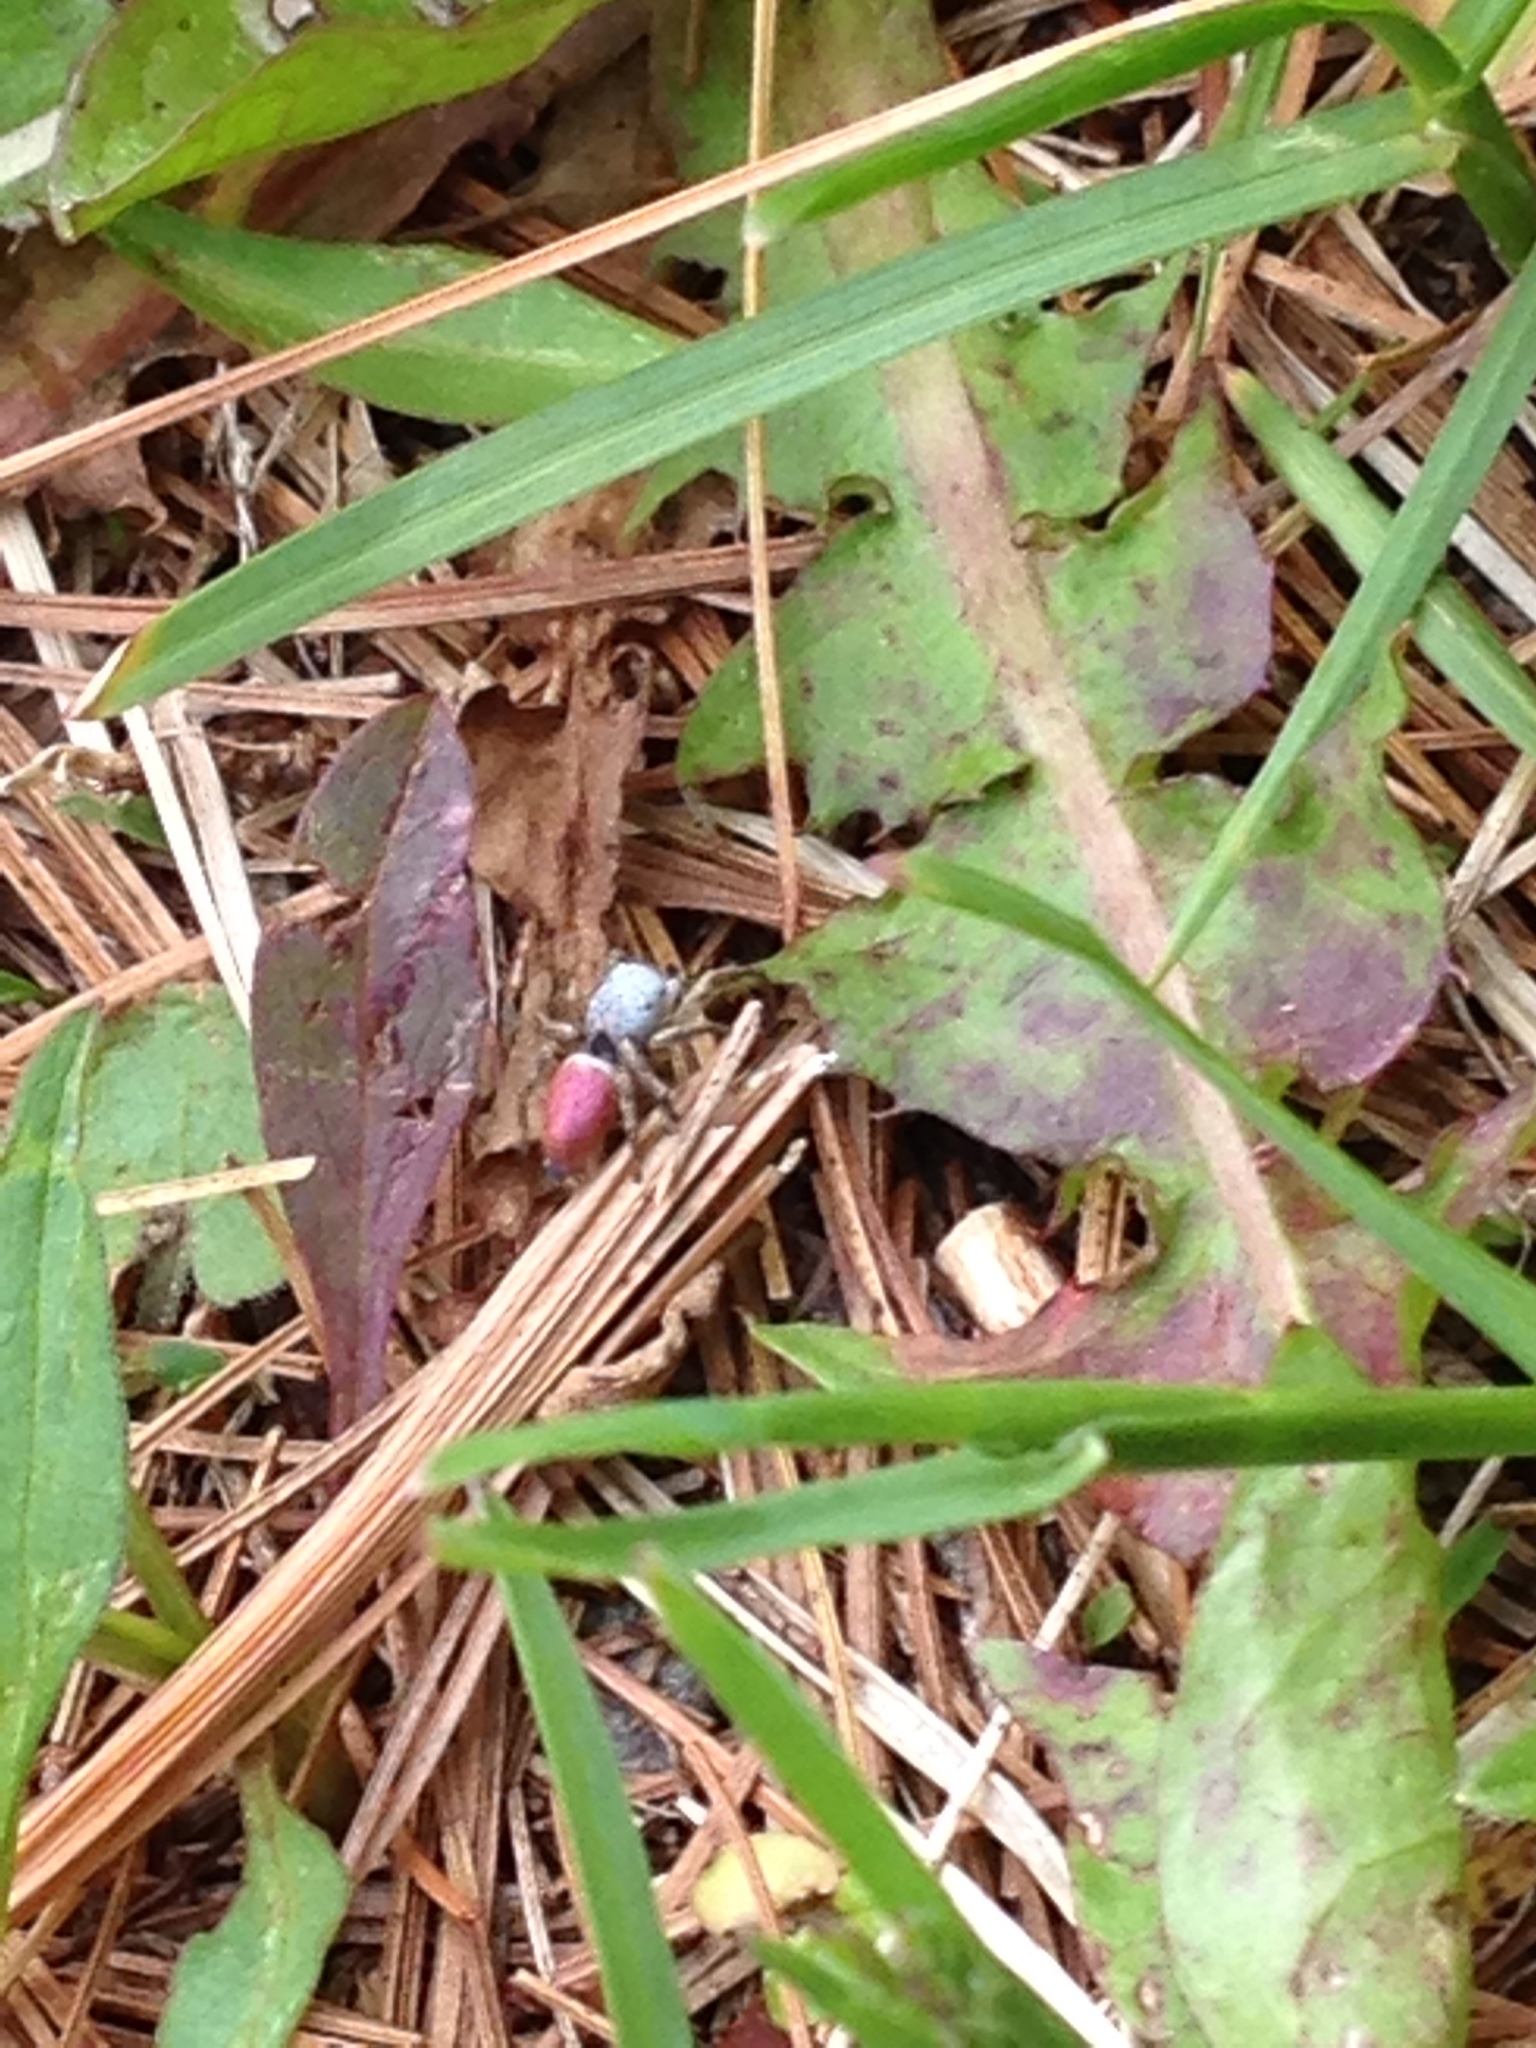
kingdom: Animalia
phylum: Arthropoda
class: Arachnida
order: Araneae
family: Salticidae
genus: Habronattus
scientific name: Habronattus decorus
